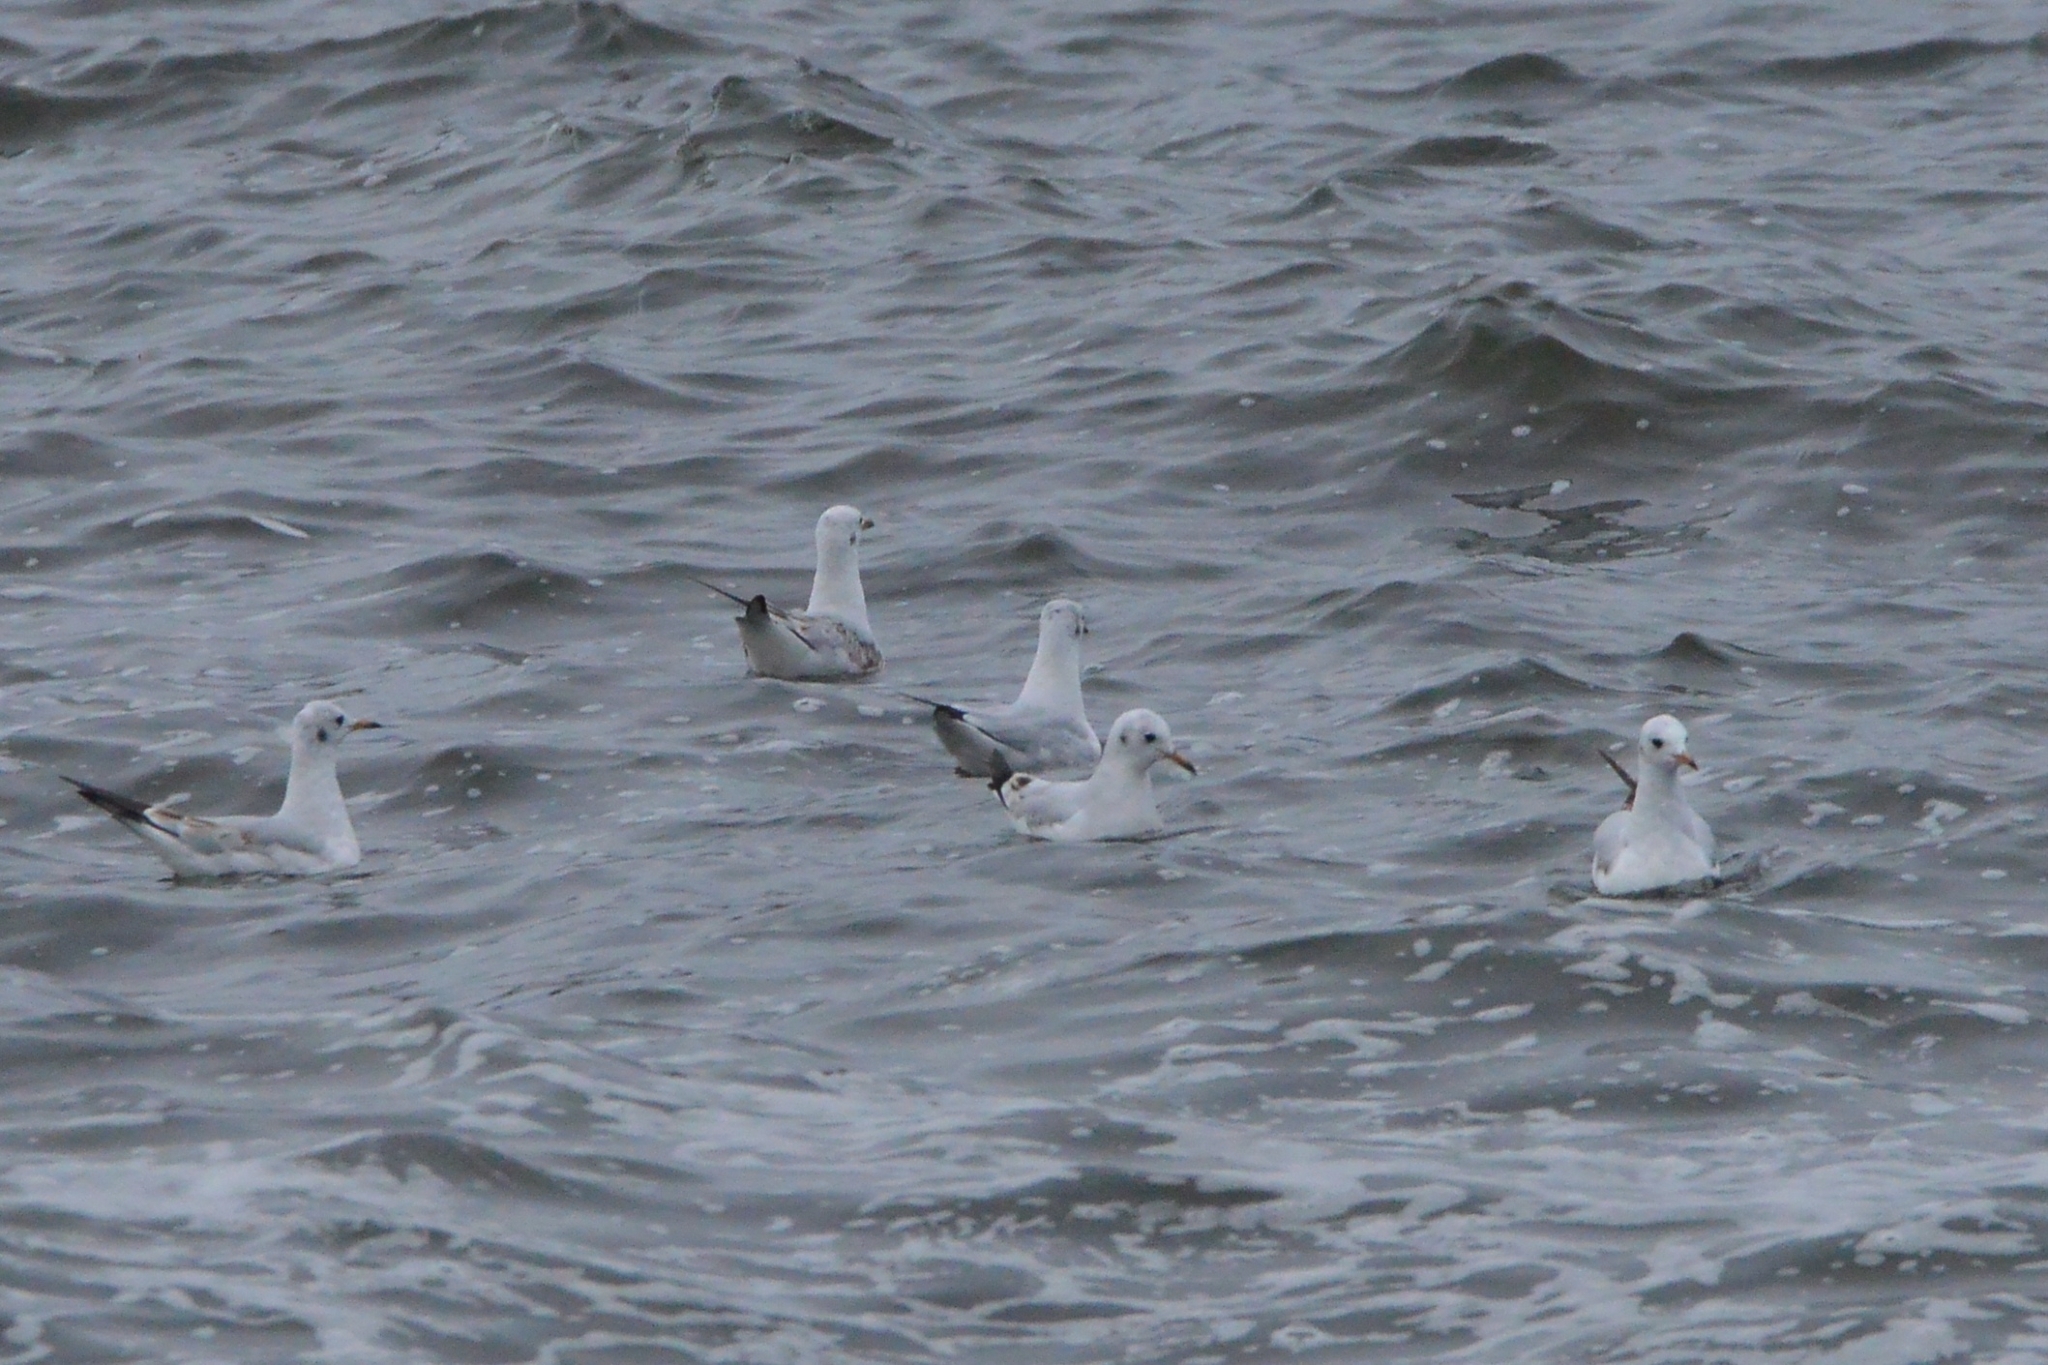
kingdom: Animalia
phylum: Chordata
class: Aves
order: Charadriiformes
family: Laridae
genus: Chroicocephalus
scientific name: Chroicocephalus ridibundus
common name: Black-headed gull
